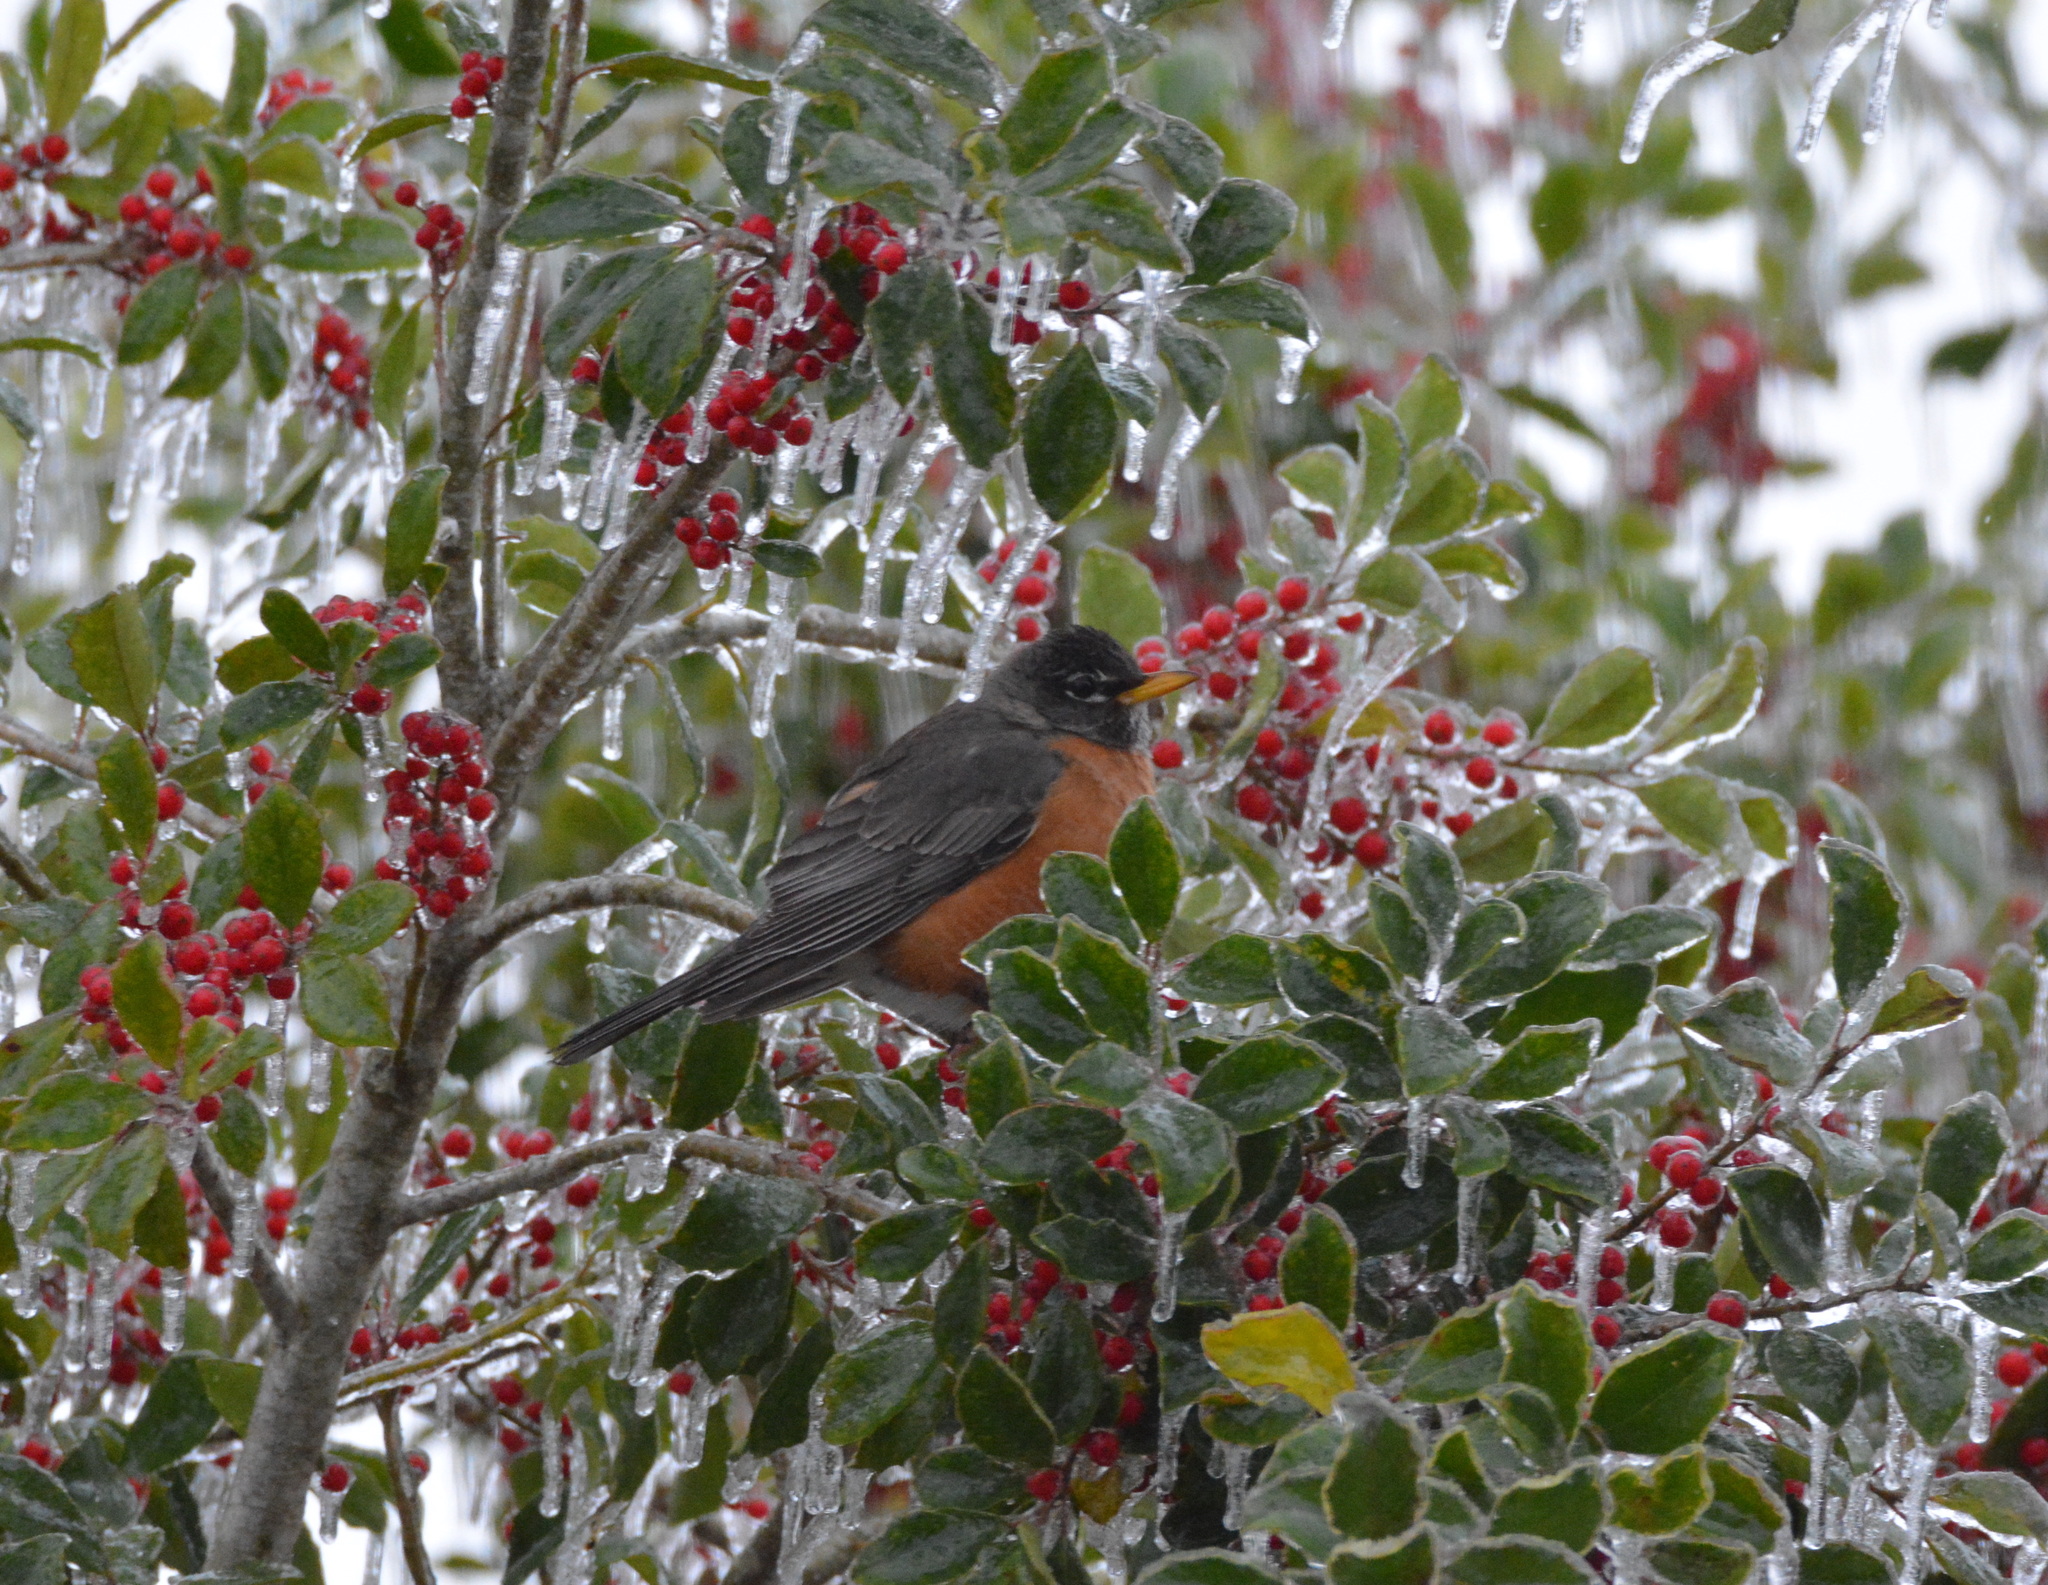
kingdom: Animalia
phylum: Chordata
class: Aves
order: Passeriformes
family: Turdidae
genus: Turdus
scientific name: Turdus migratorius
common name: American robin
